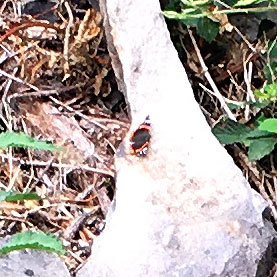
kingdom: Animalia
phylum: Arthropoda
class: Insecta
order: Lepidoptera
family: Nymphalidae
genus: Vanessa
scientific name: Vanessa atalanta
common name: Red admiral
